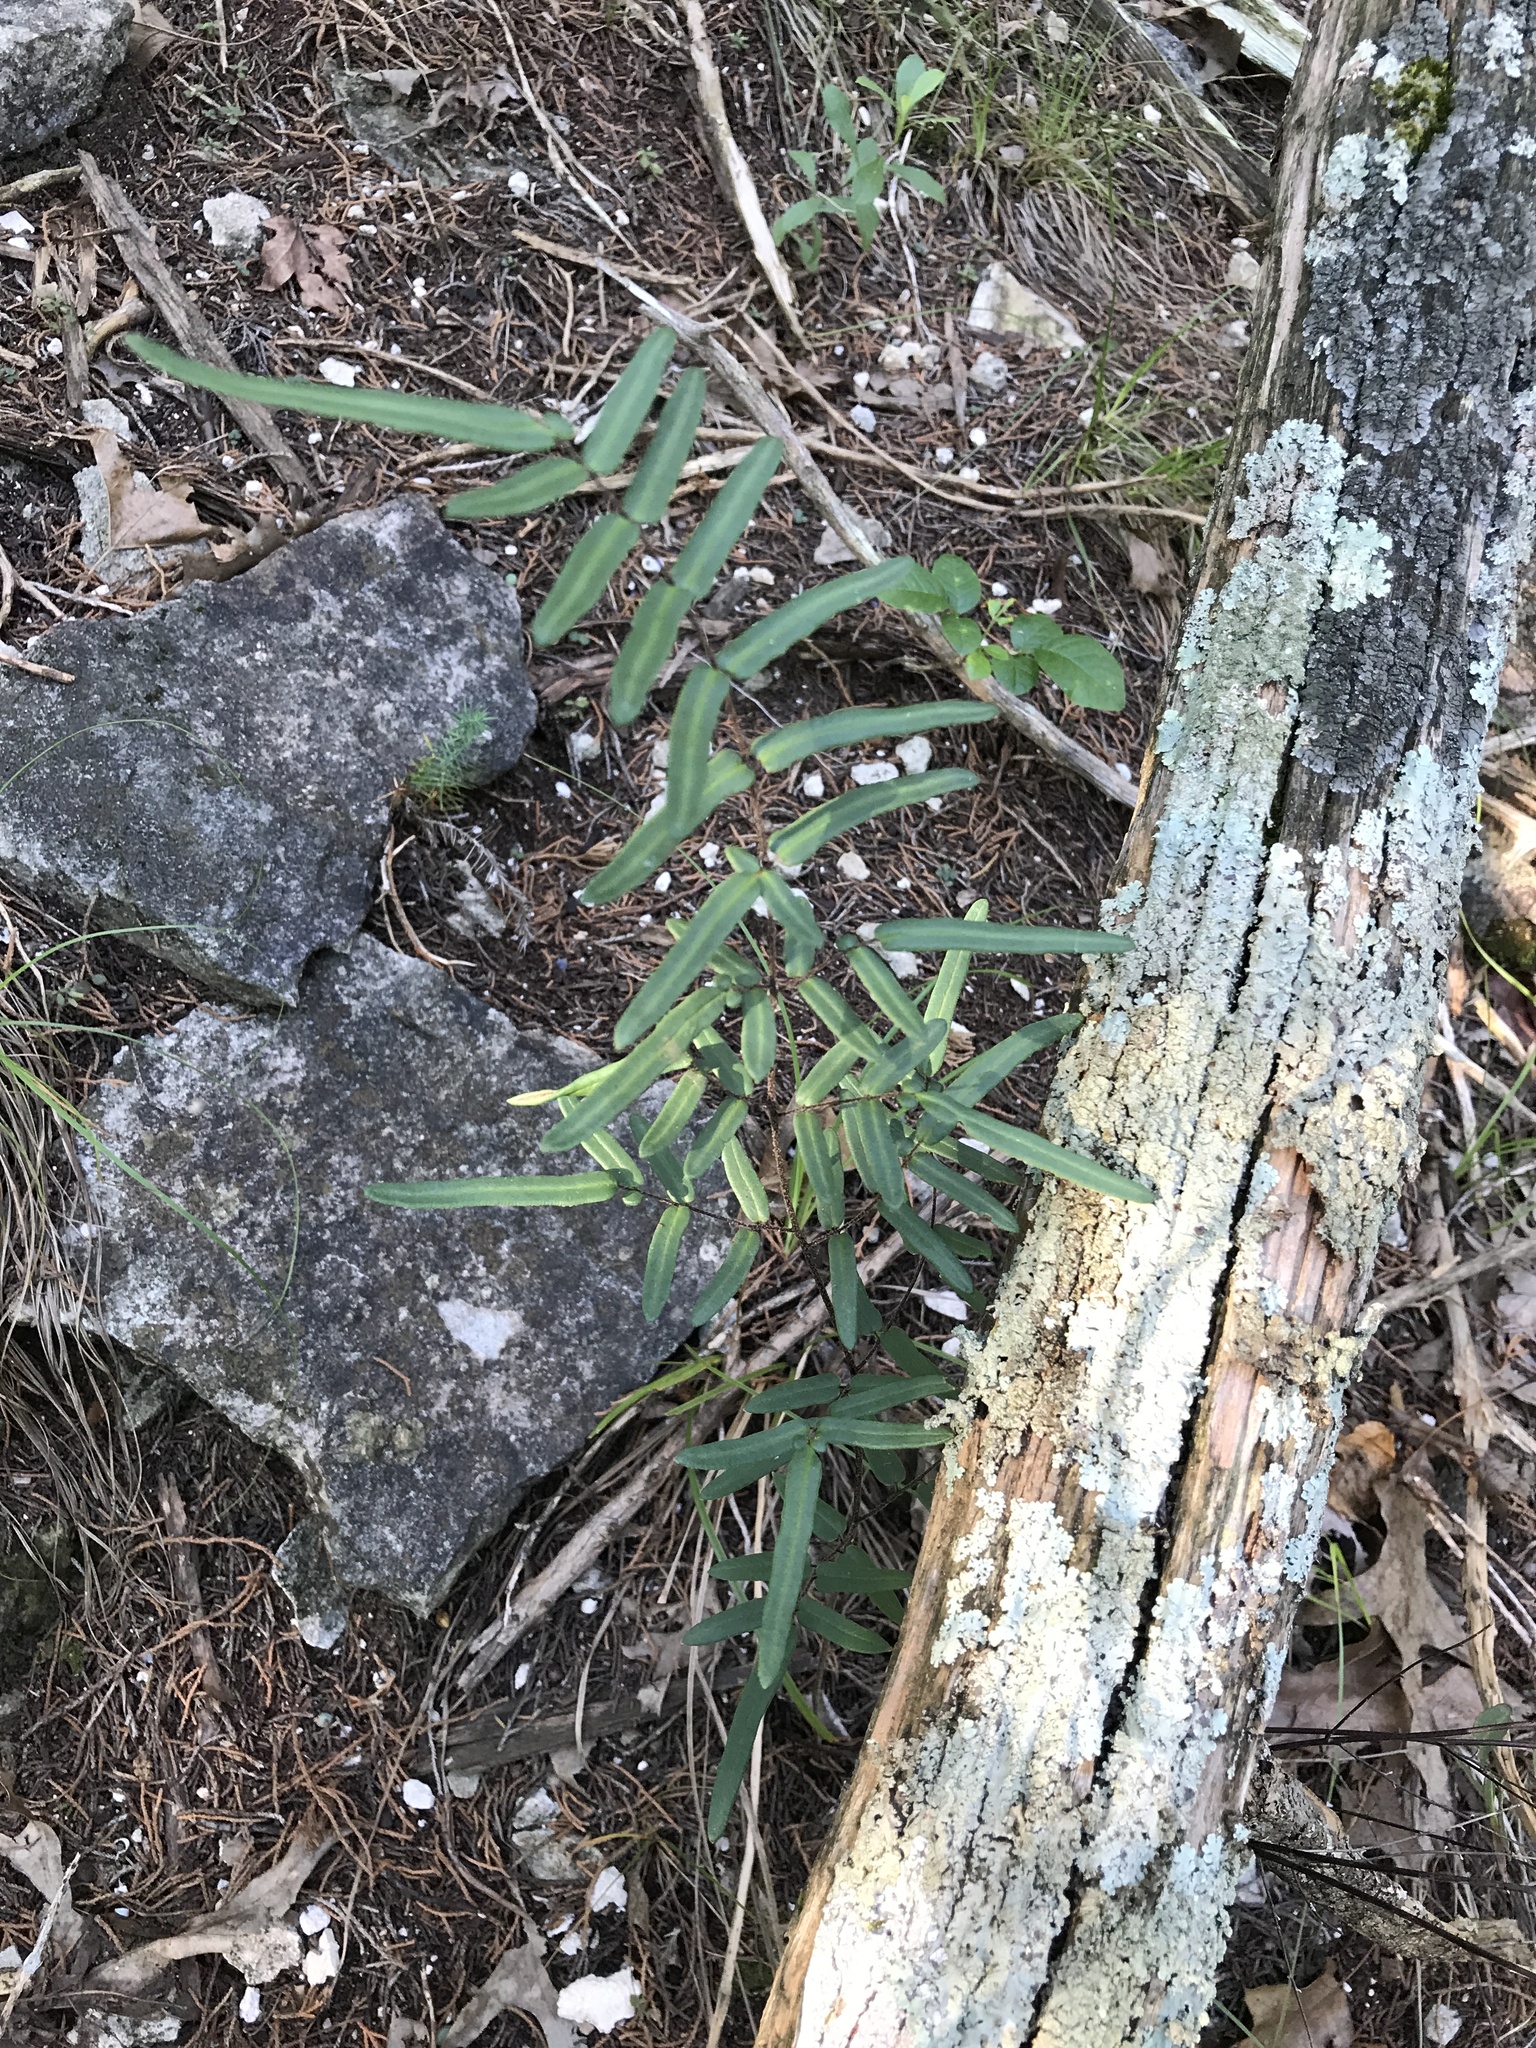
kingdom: Plantae
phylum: Tracheophyta
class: Polypodiopsida
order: Polypodiales
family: Pteridaceae
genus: Pellaea
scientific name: Pellaea atropurpurea
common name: Hairy cliffbrake
